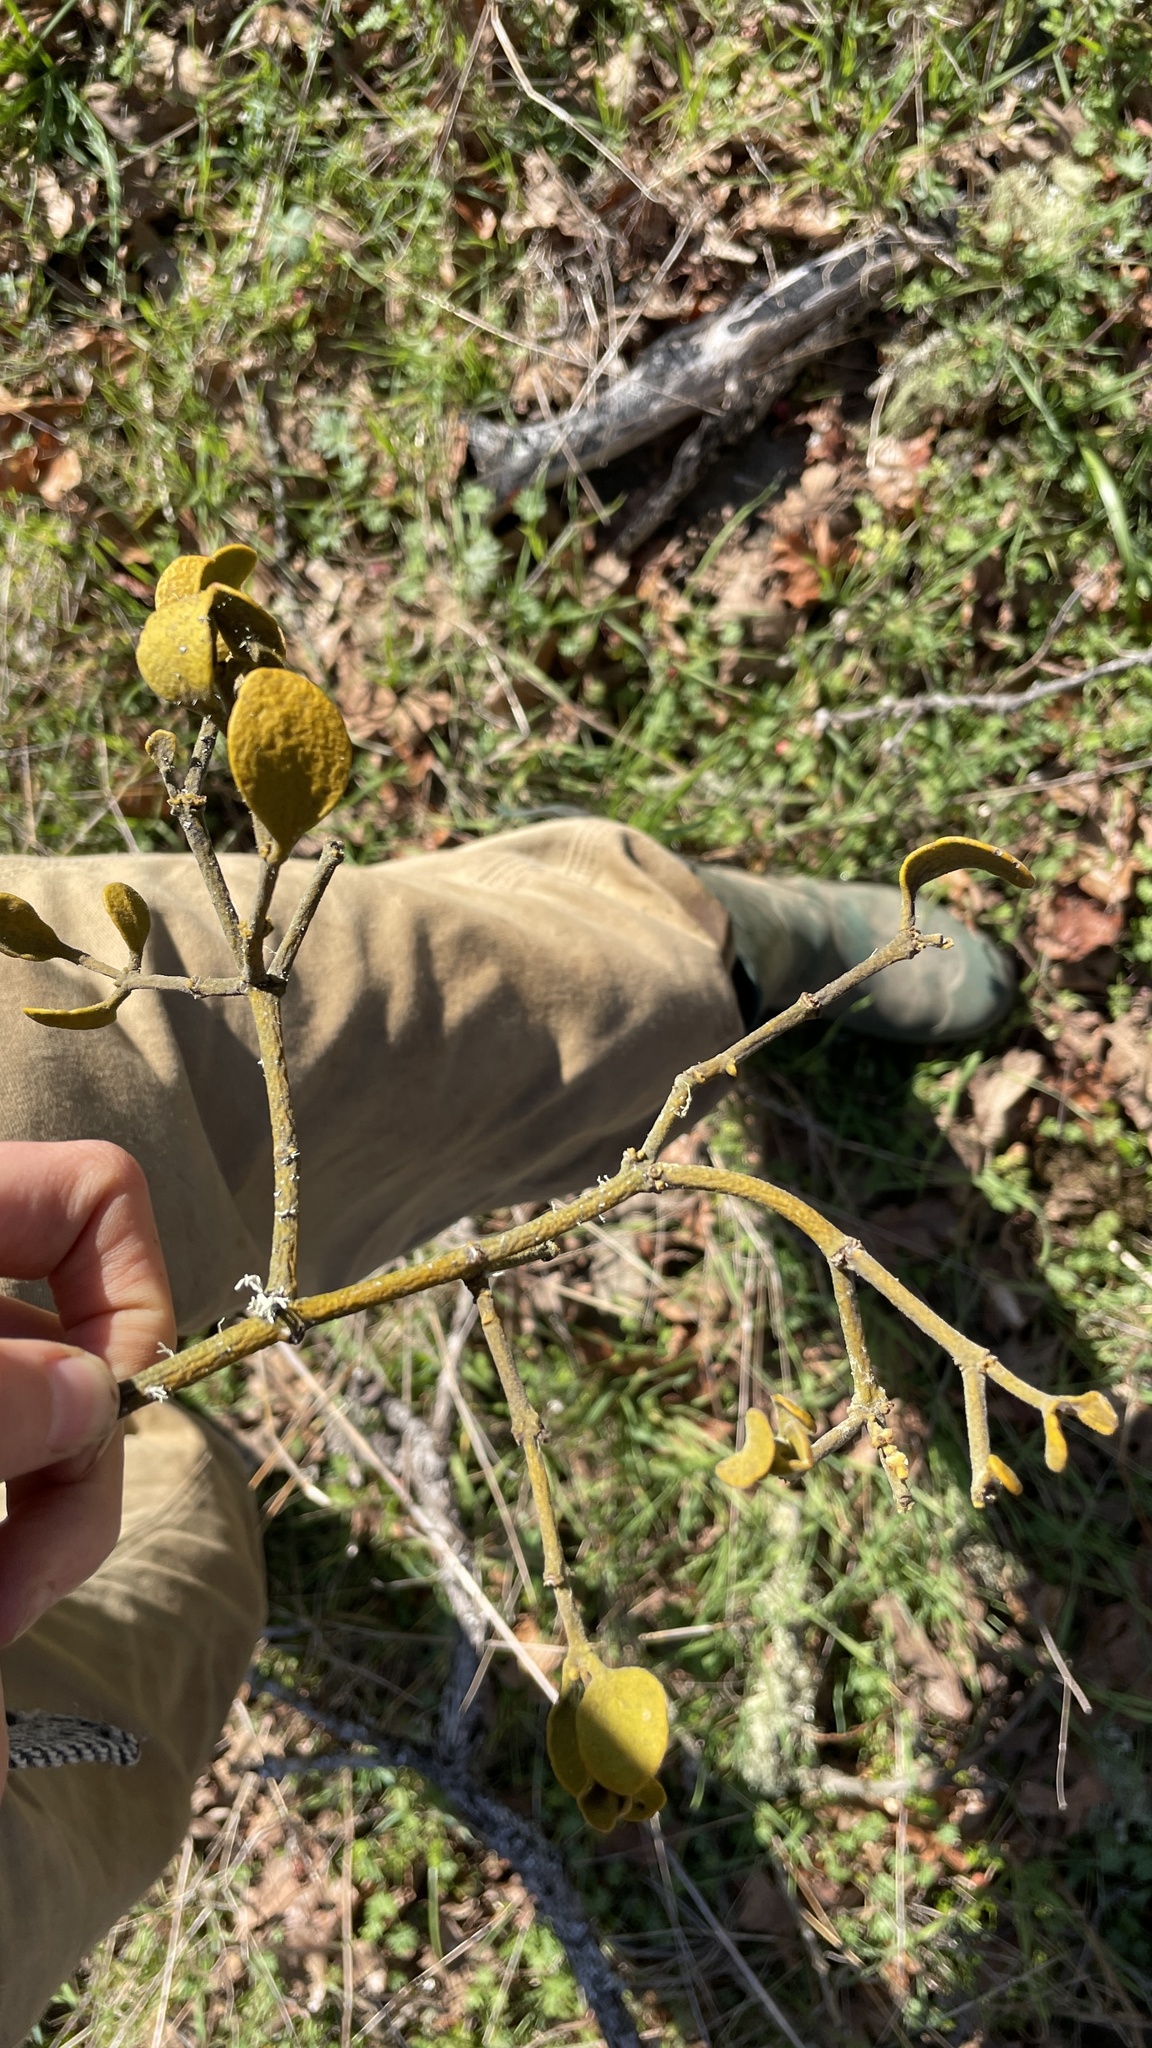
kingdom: Plantae
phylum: Tracheophyta
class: Magnoliopsida
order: Santalales
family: Viscaceae
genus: Phoradendron
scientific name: Phoradendron leucarpum
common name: Pacific mistletoe
